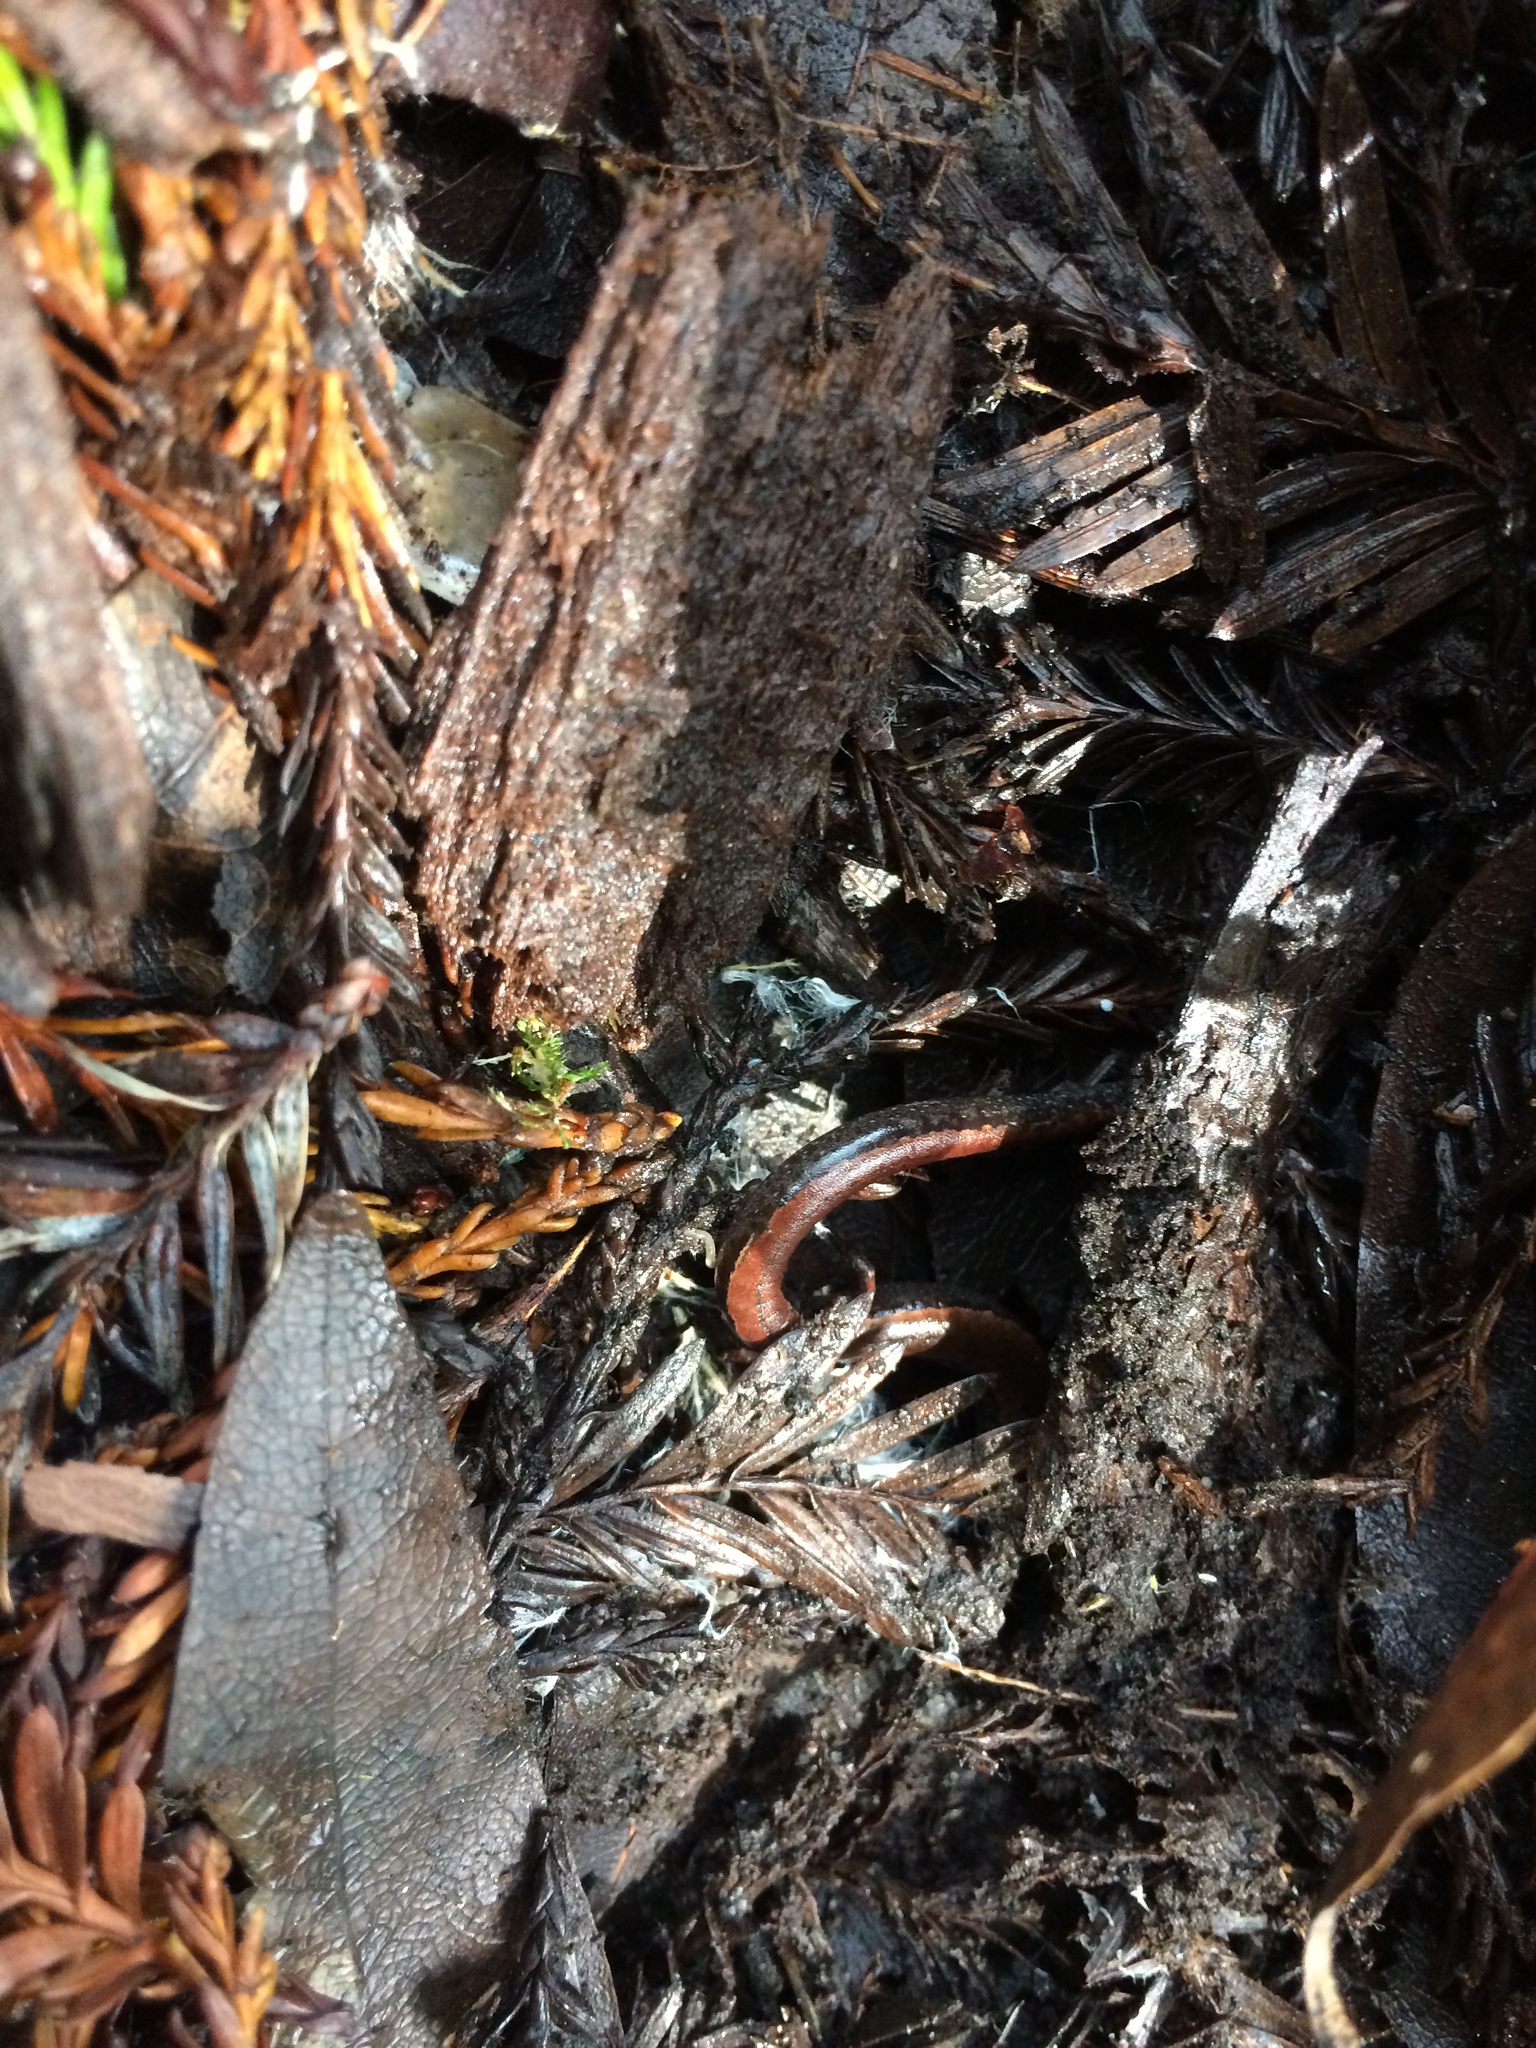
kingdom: Animalia
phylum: Chordata
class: Amphibia
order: Caudata
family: Plethodontidae
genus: Batrachoseps
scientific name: Batrachoseps attenuatus
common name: California slender salamander
